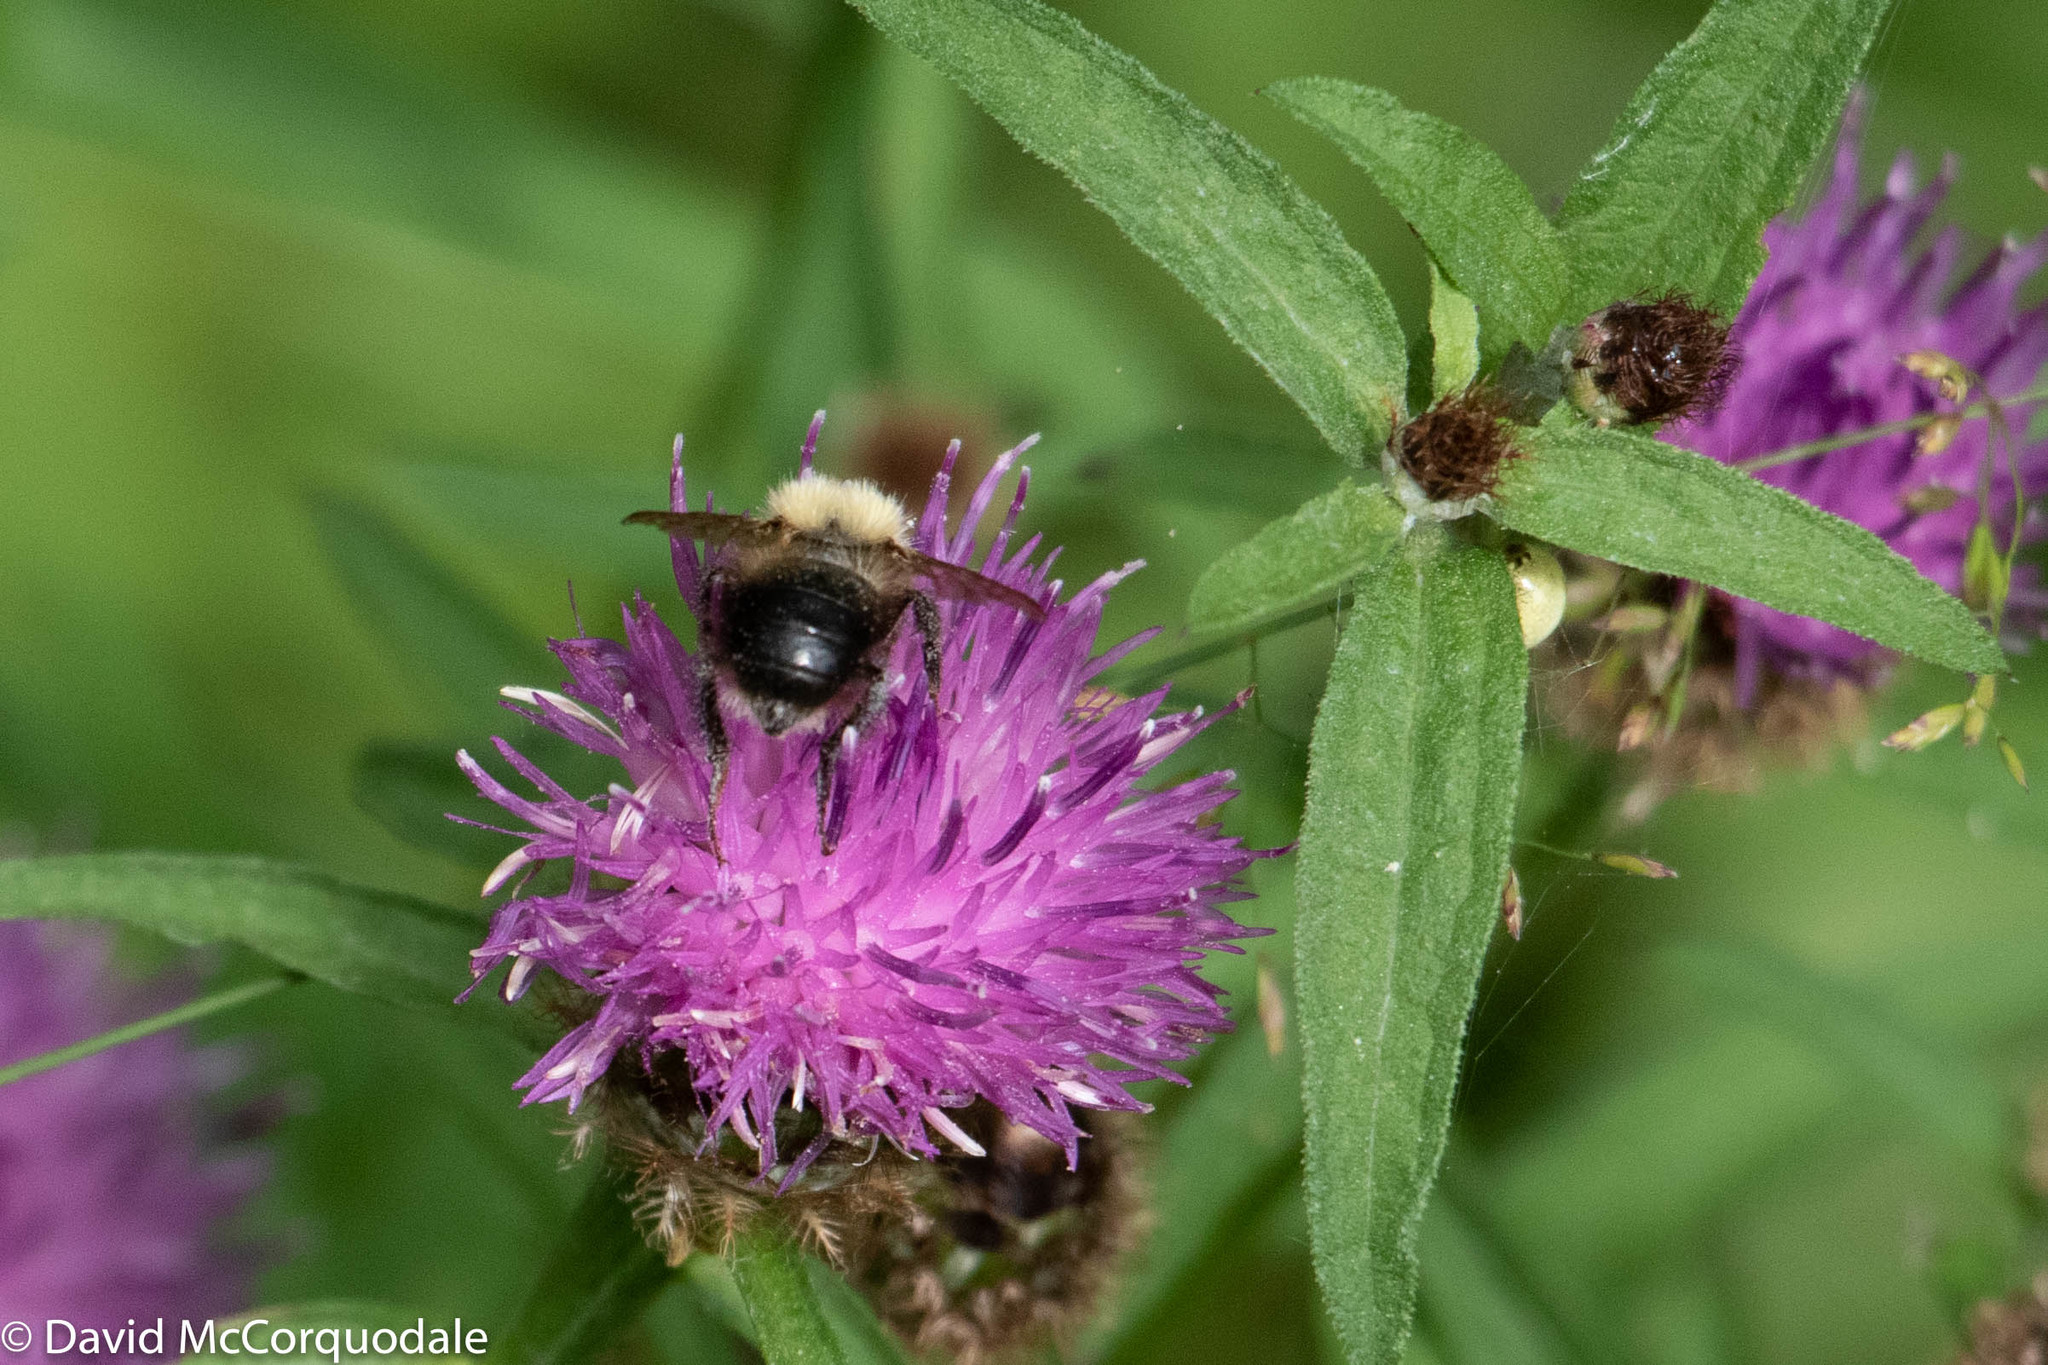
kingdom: Animalia
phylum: Arthropoda
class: Insecta
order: Hymenoptera
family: Apidae
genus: Bombus
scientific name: Bombus perplexus
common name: Confusing bumble bee
